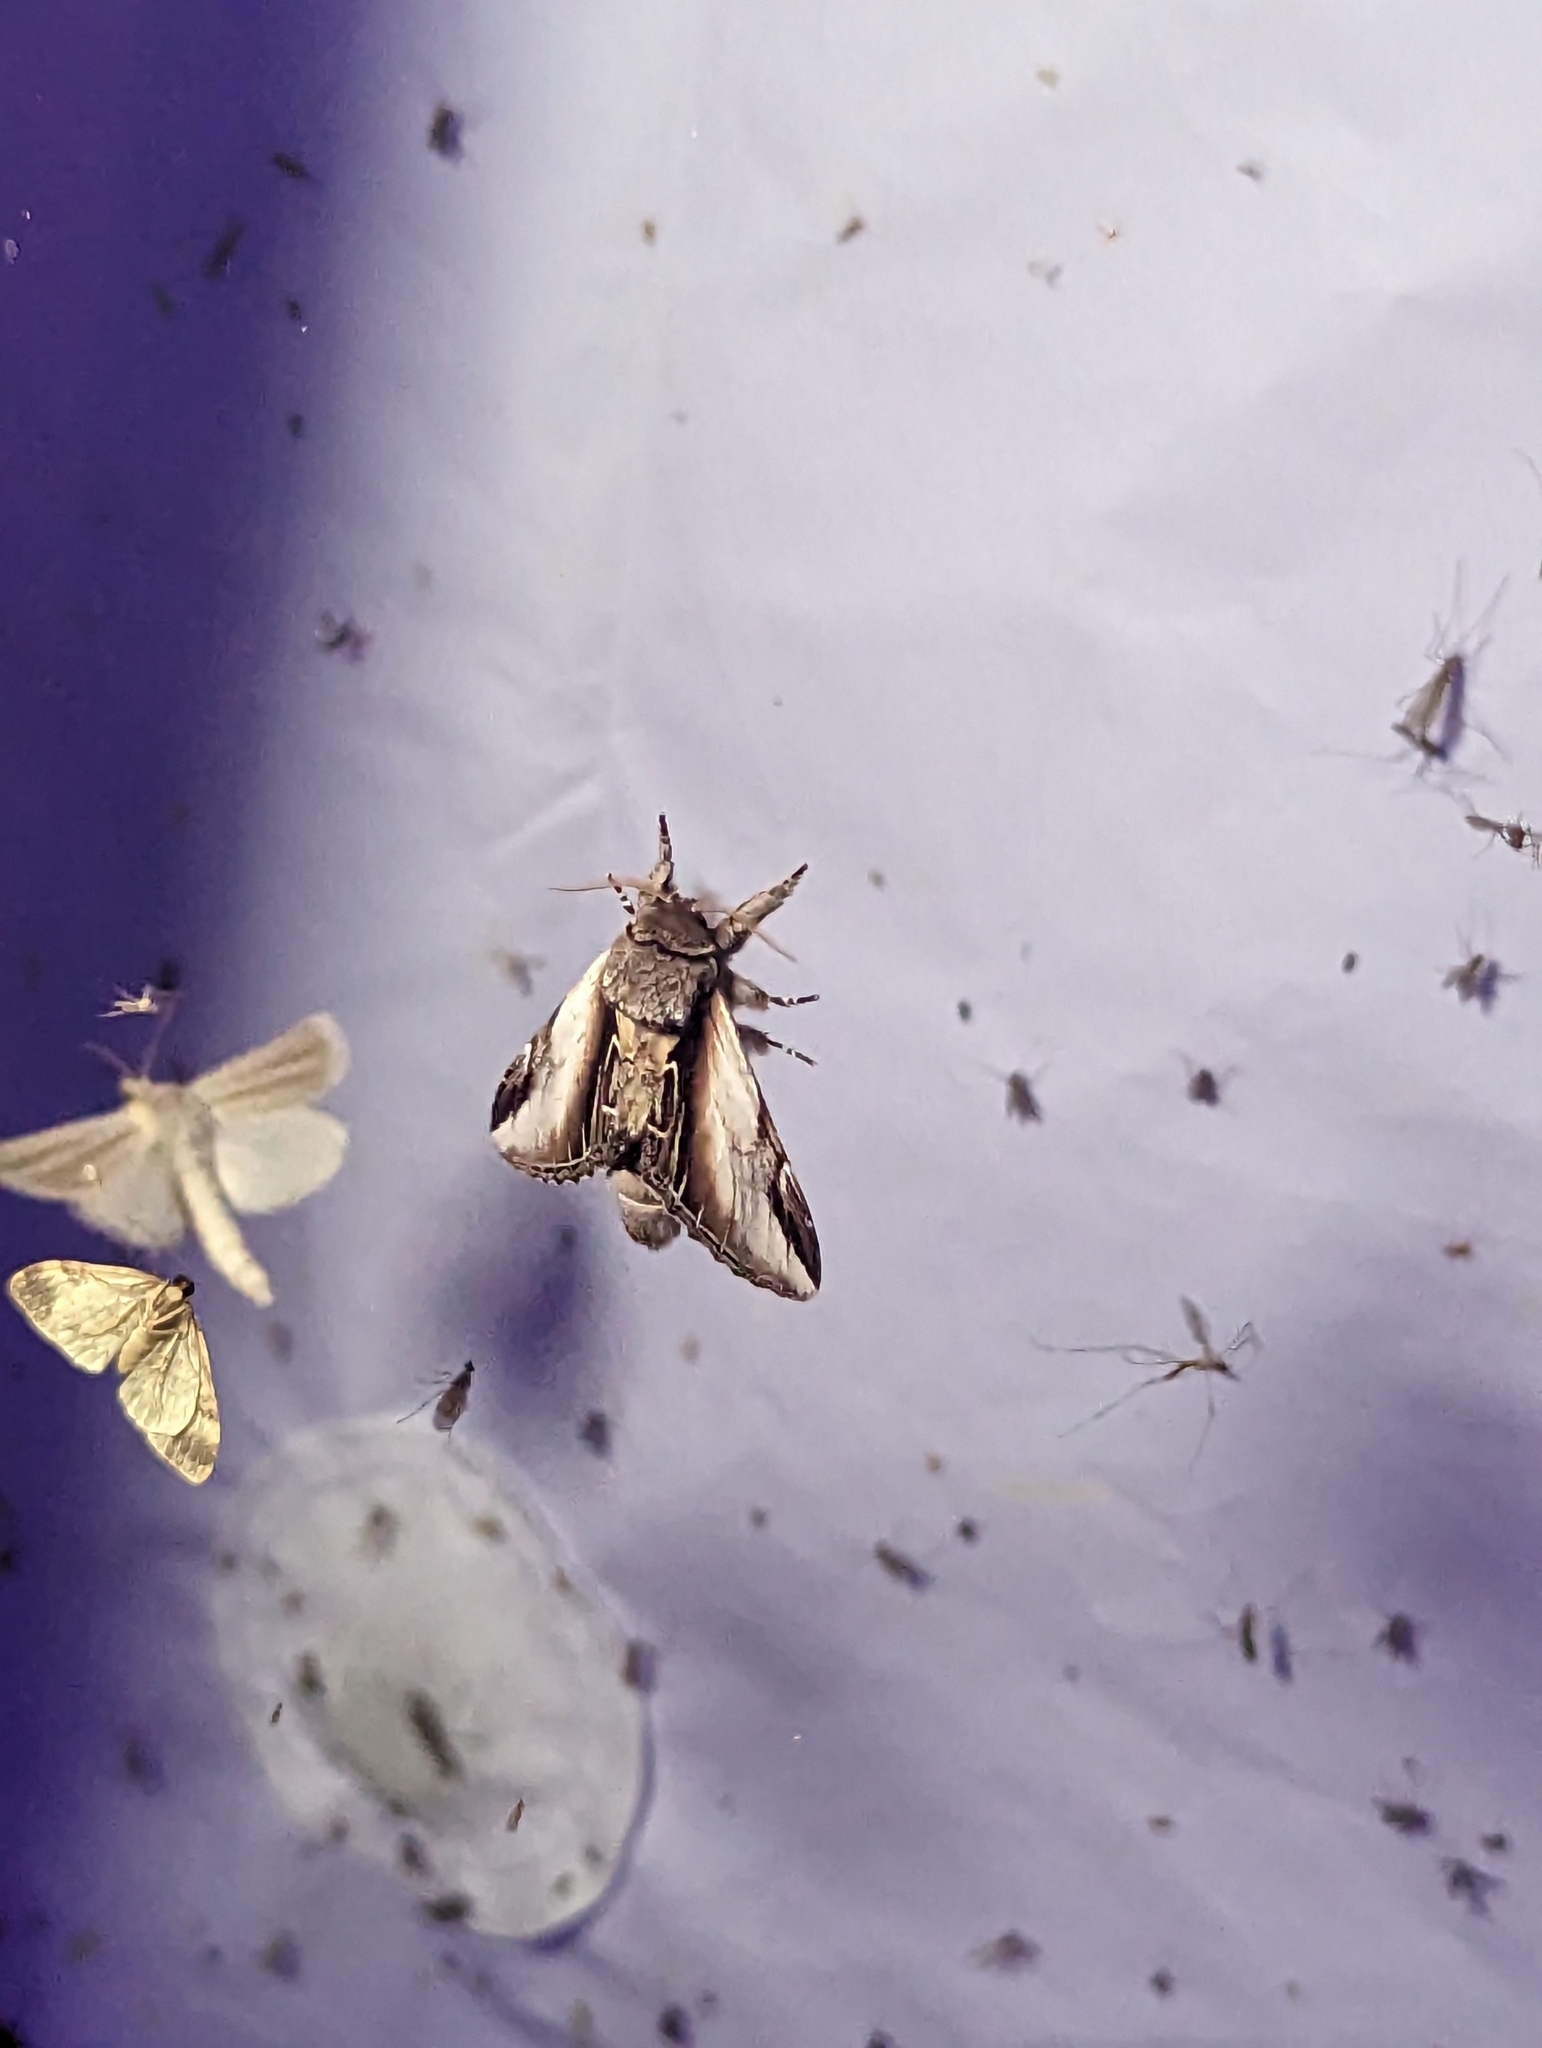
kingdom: Animalia
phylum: Arthropoda
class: Insecta
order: Lepidoptera
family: Notodontidae
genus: Pheosia
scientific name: Pheosia rimosa
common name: Black-rimmed prominent
